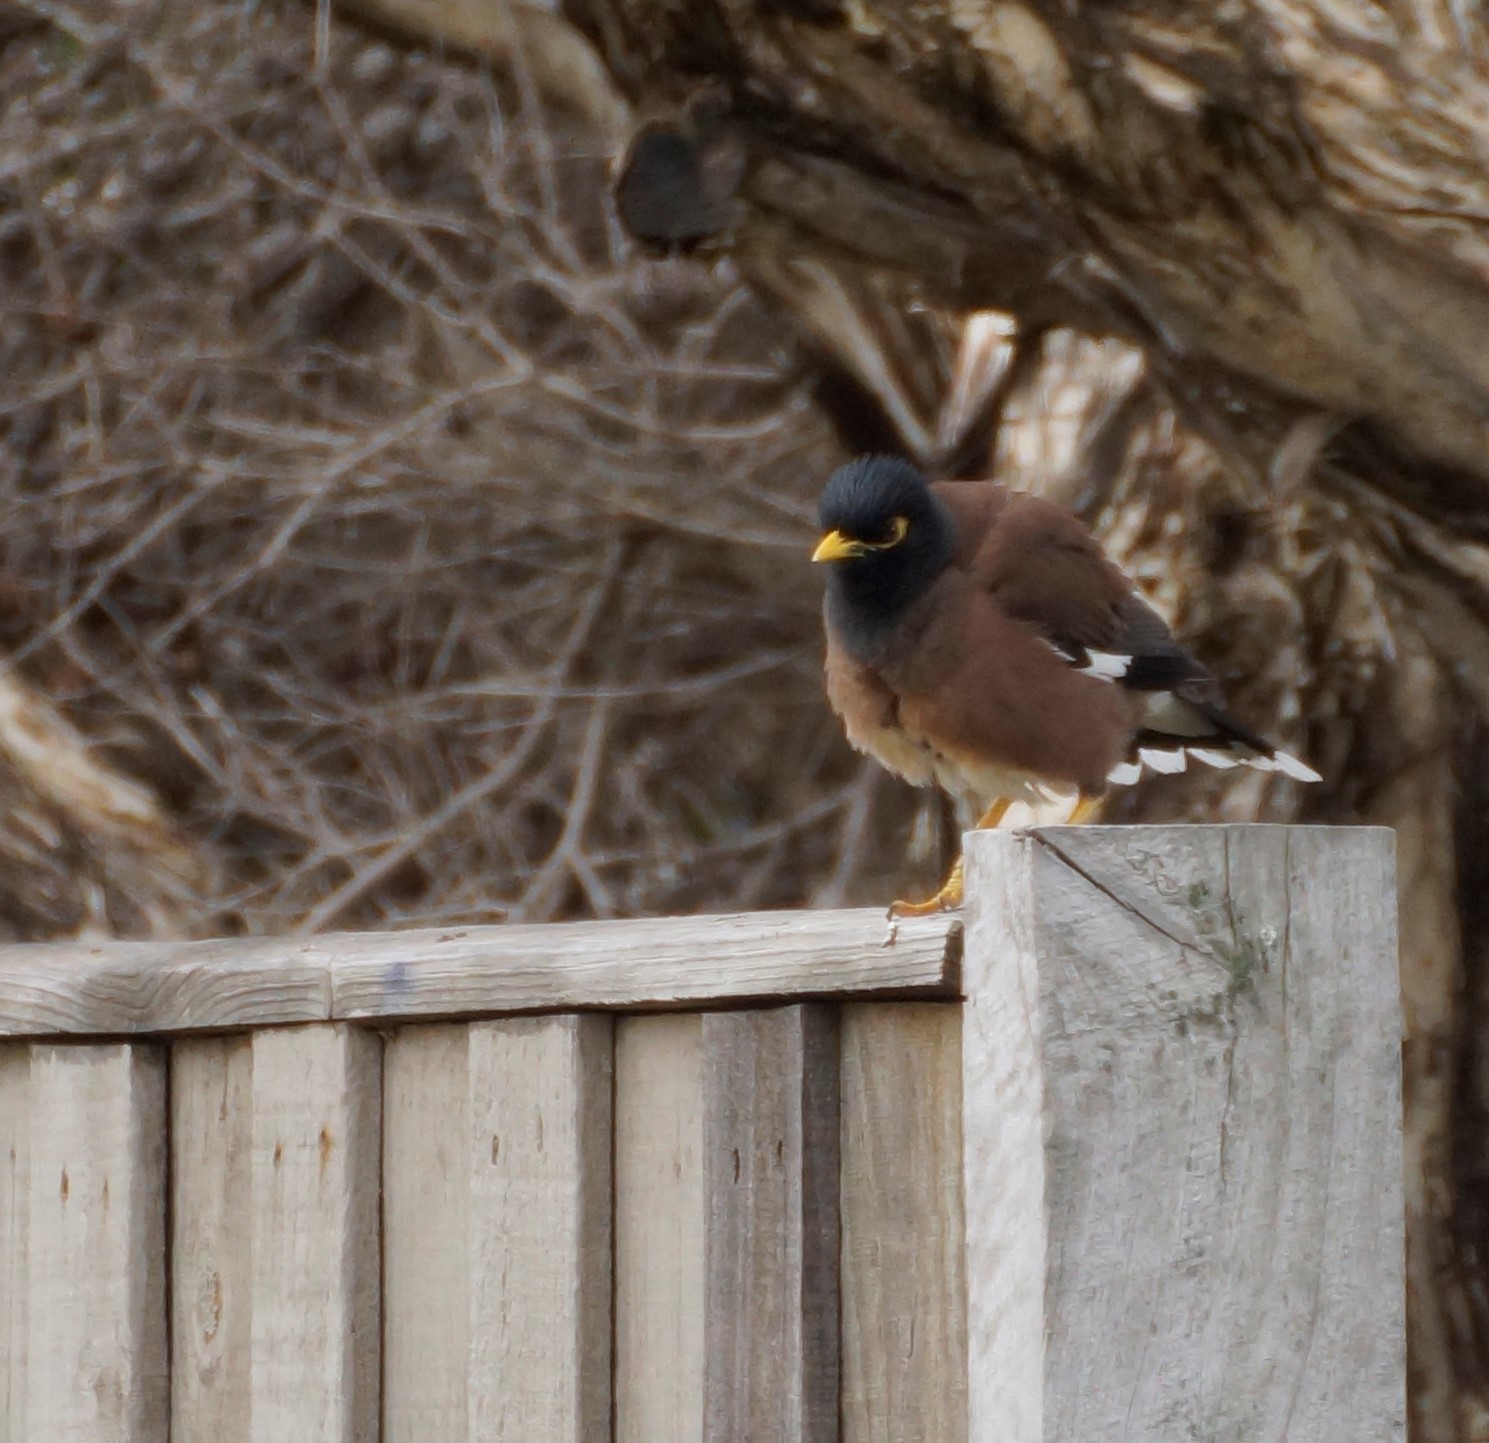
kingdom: Animalia
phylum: Chordata
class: Aves
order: Passeriformes
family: Sturnidae
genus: Acridotheres
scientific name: Acridotheres tristis
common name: Common myna
